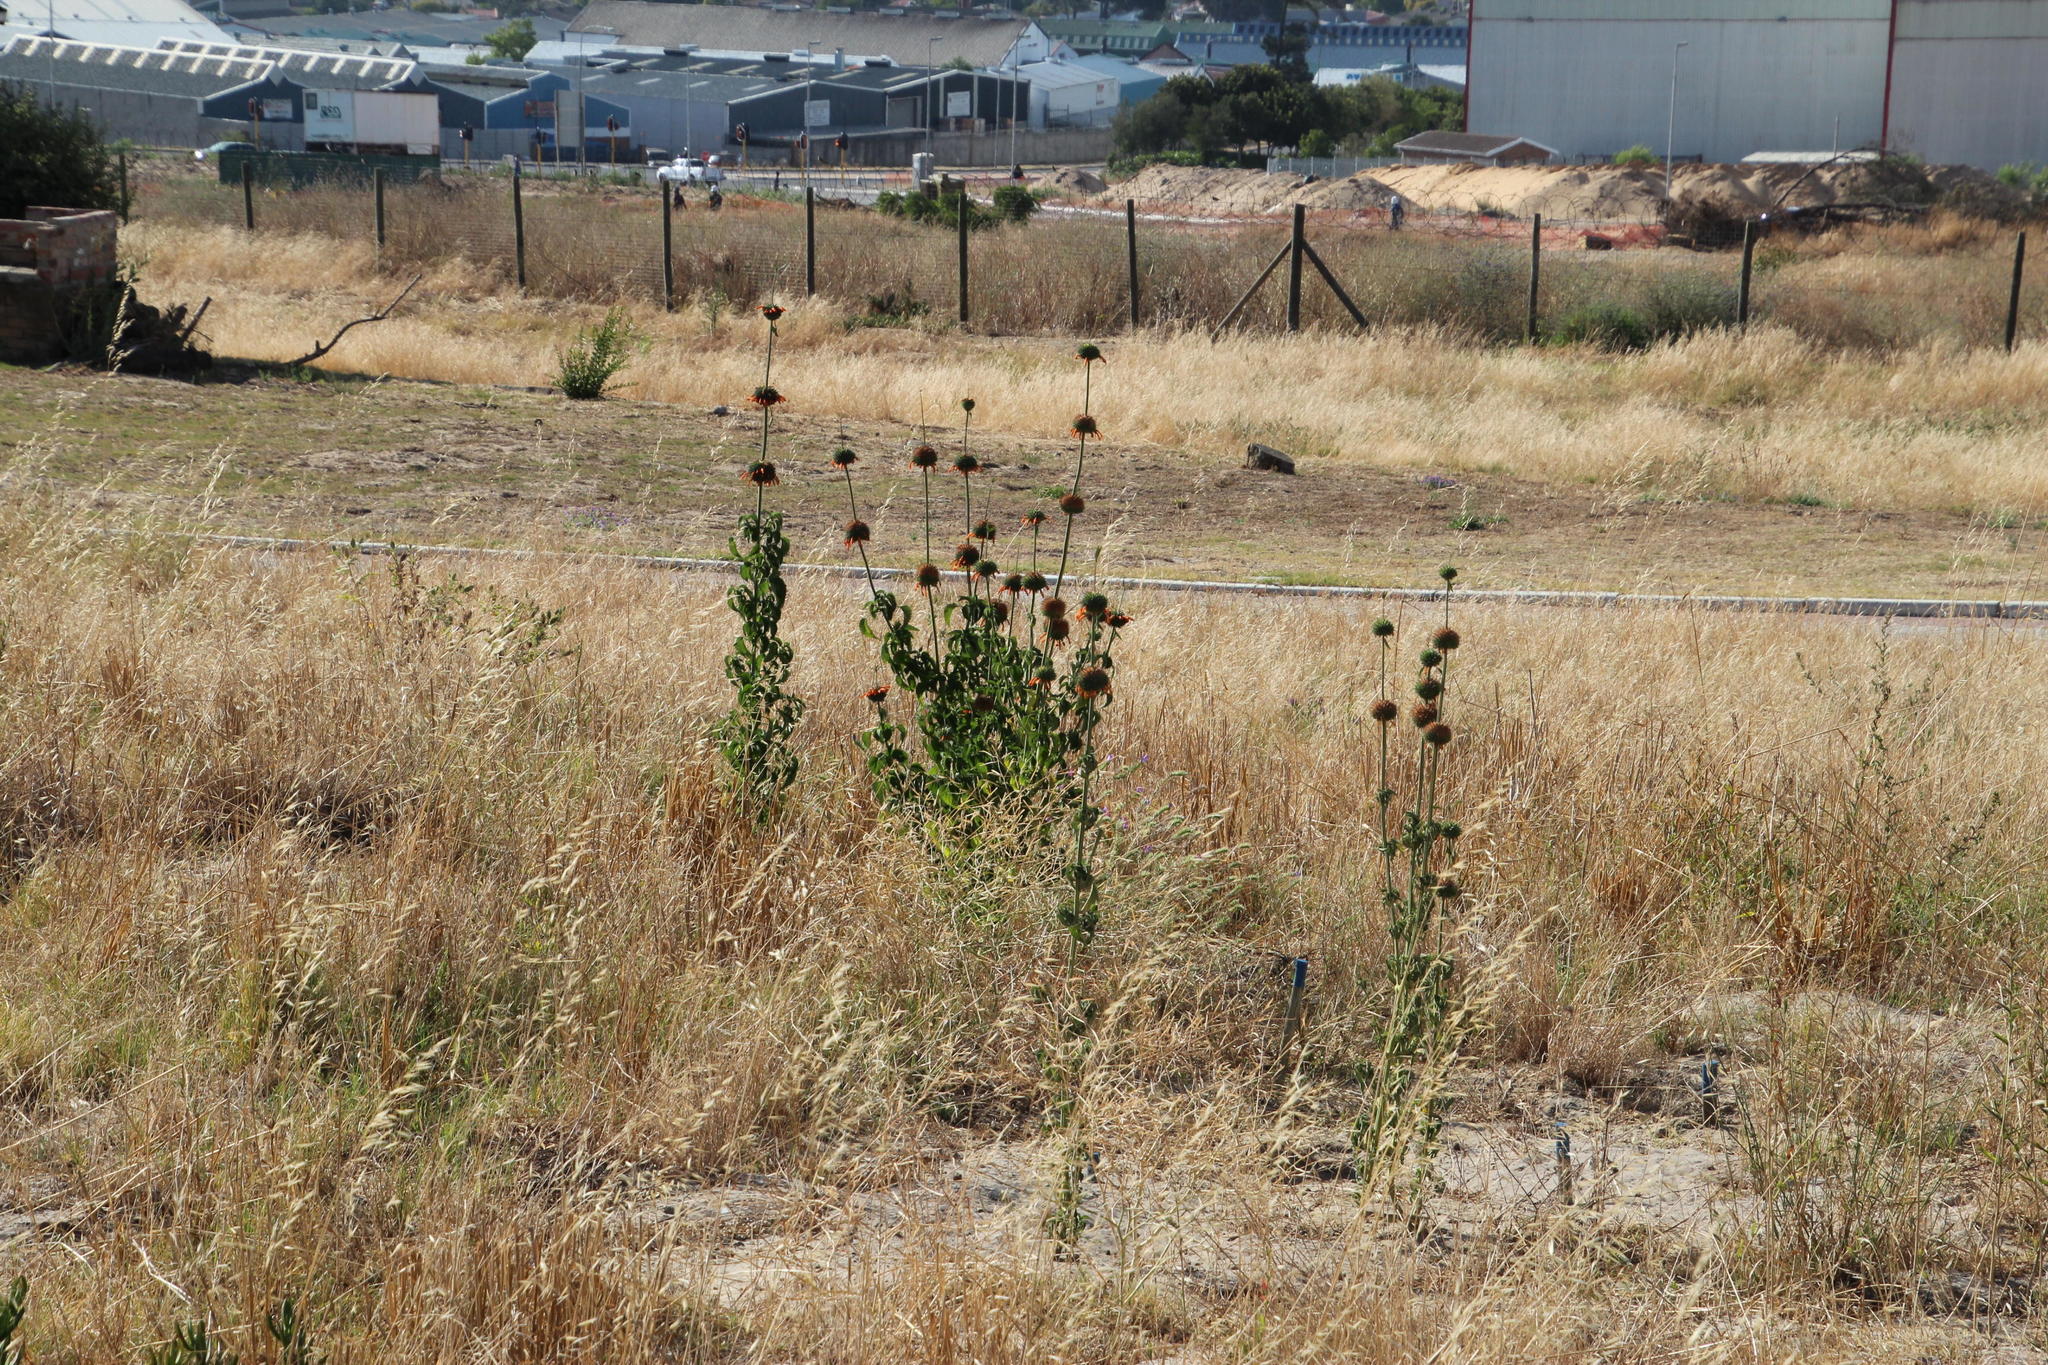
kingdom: Plantae
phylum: Tracheophyta
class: Magnoliopsida
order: Lamiales
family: Lamiaceae
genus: Leonotis
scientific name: Leonotis nepetifolia
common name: Christmas candlestick
